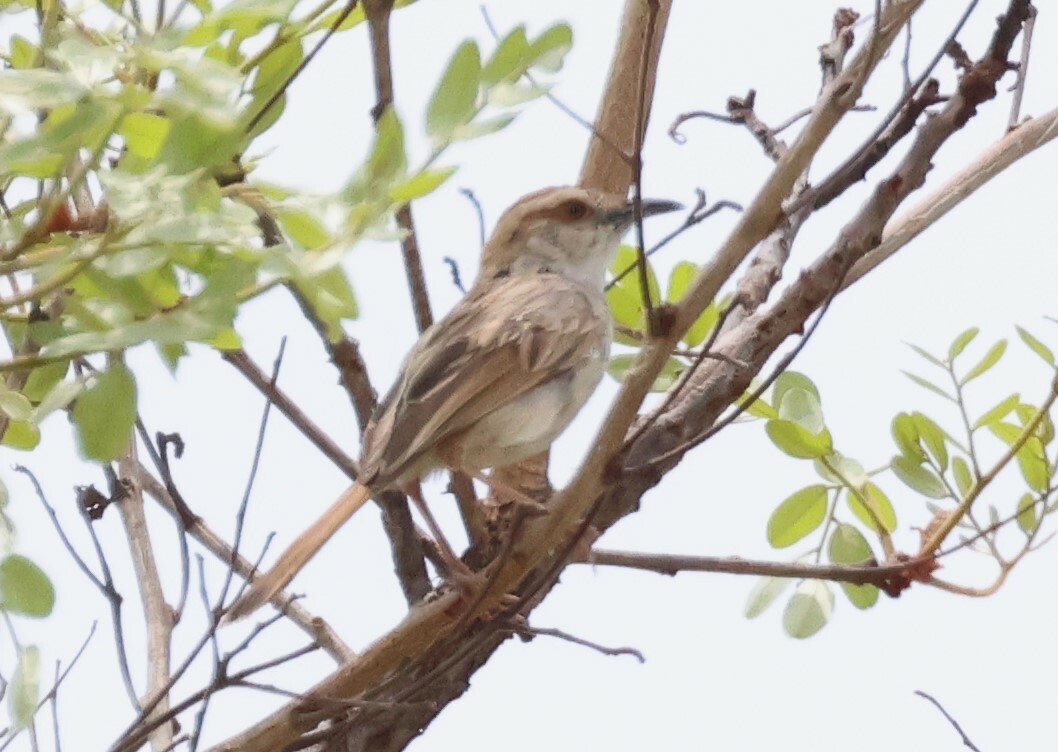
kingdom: Animalia
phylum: Chordata
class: Aves
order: Passeriformes
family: Cisticolidae
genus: Cisticola
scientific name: Cisticola rufilatus
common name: Tinkling cisticola
